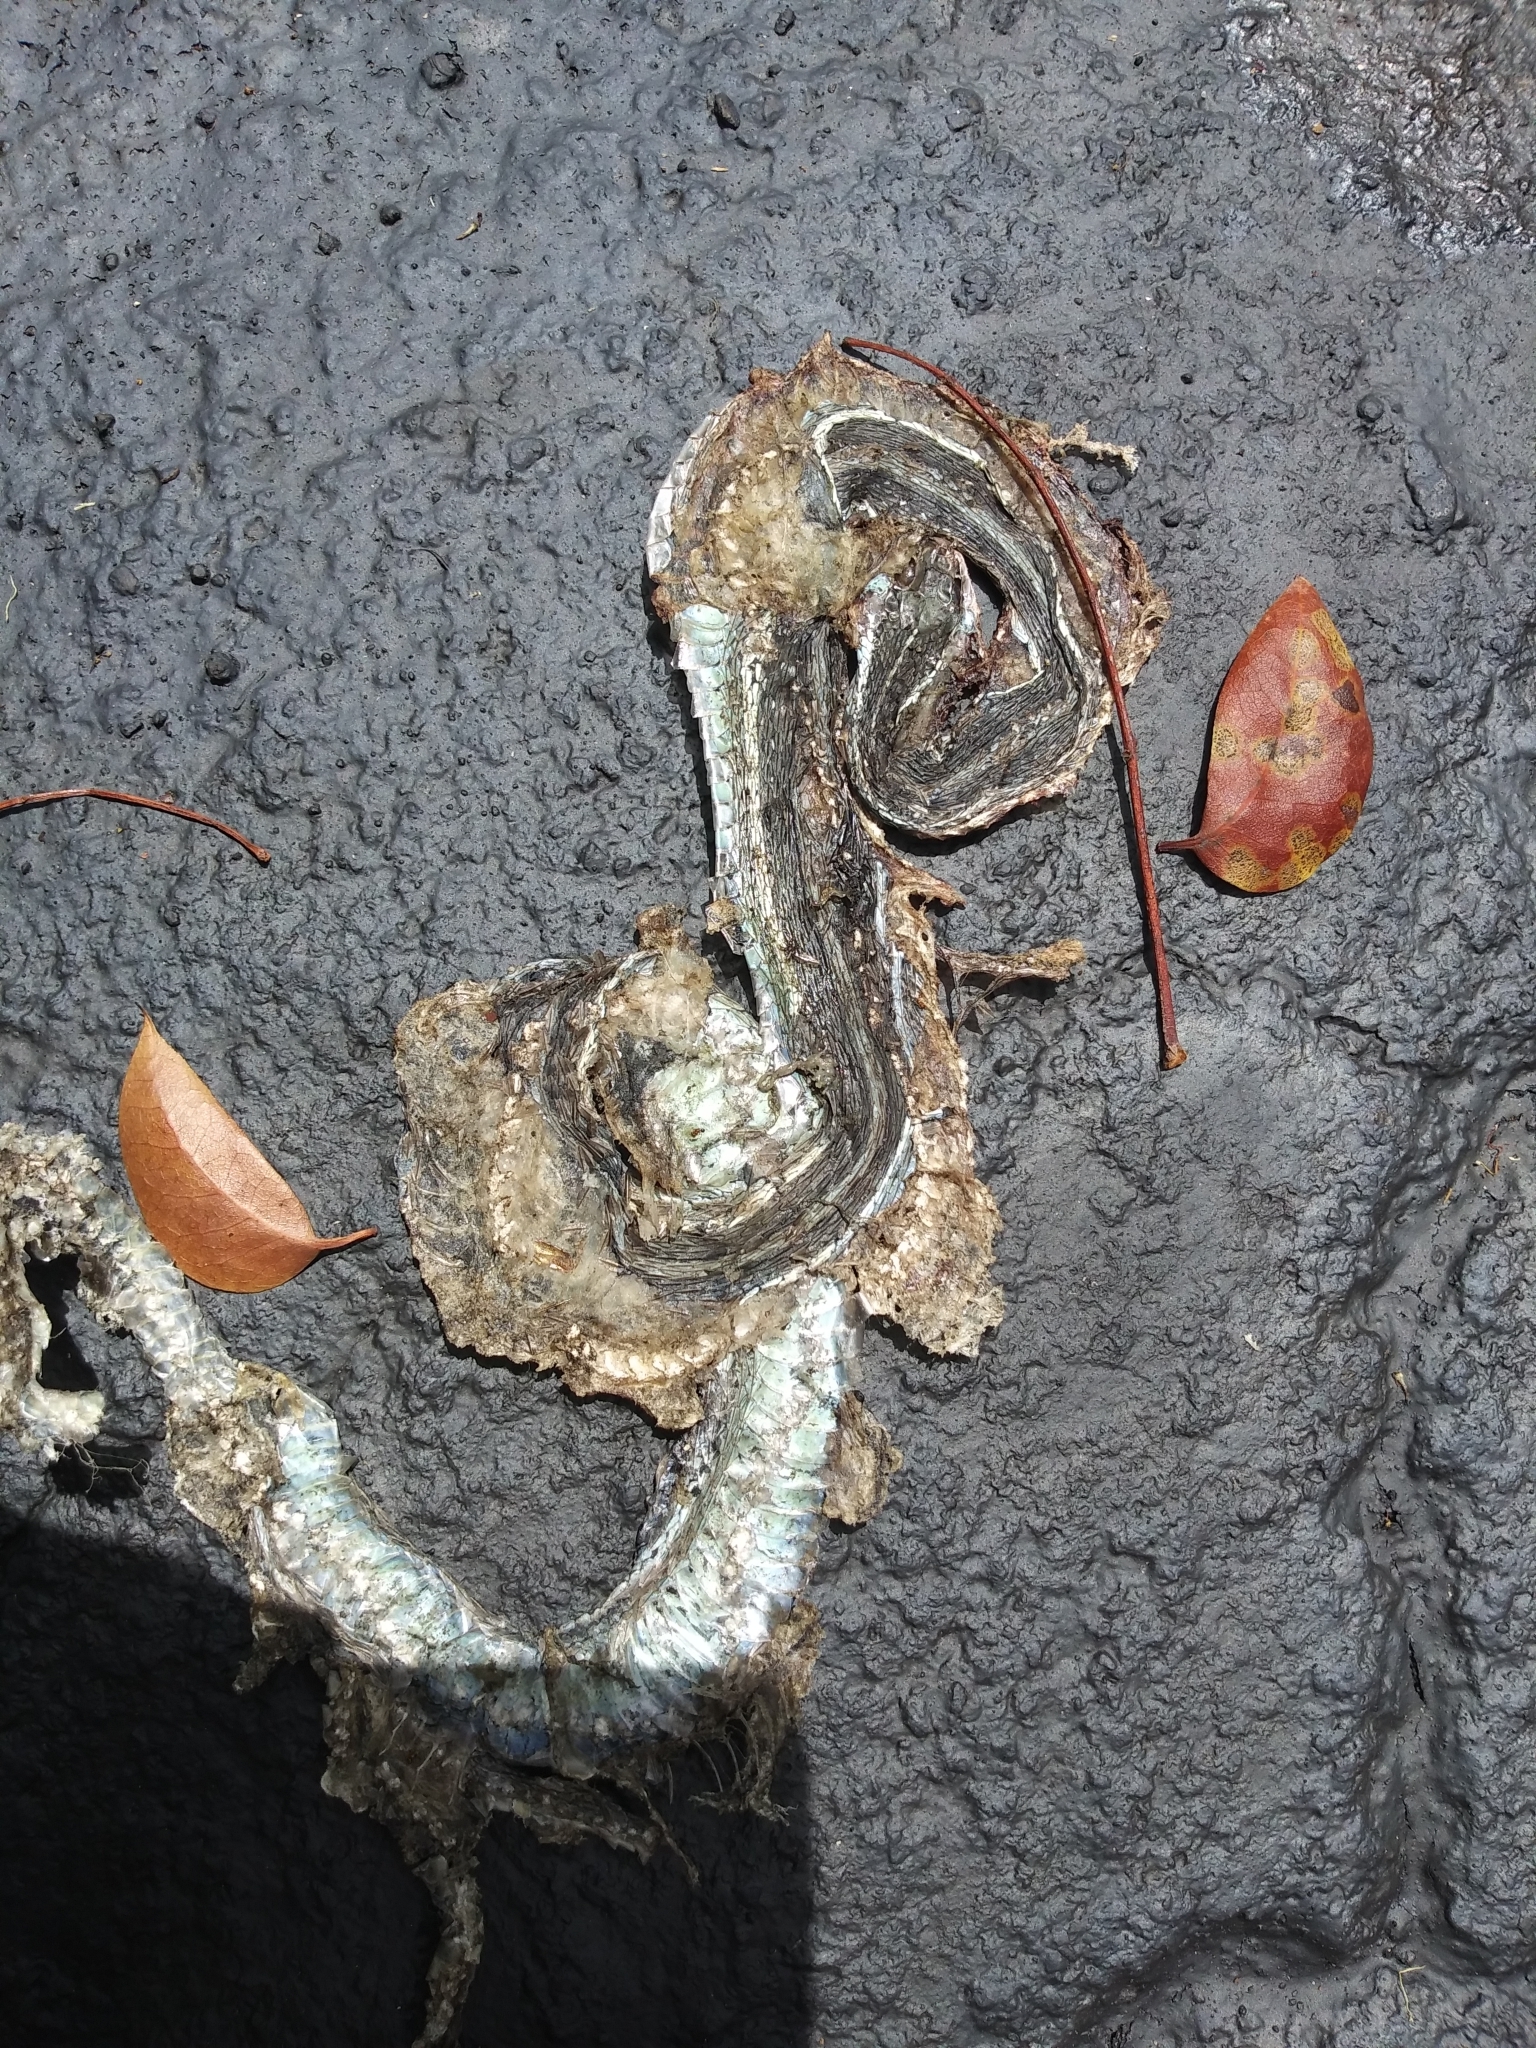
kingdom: Animalia
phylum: Chordata
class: Squamata
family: Colubridae
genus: Thamnophis
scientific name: Thamnophis saurita
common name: Eastern ribbonsnake
